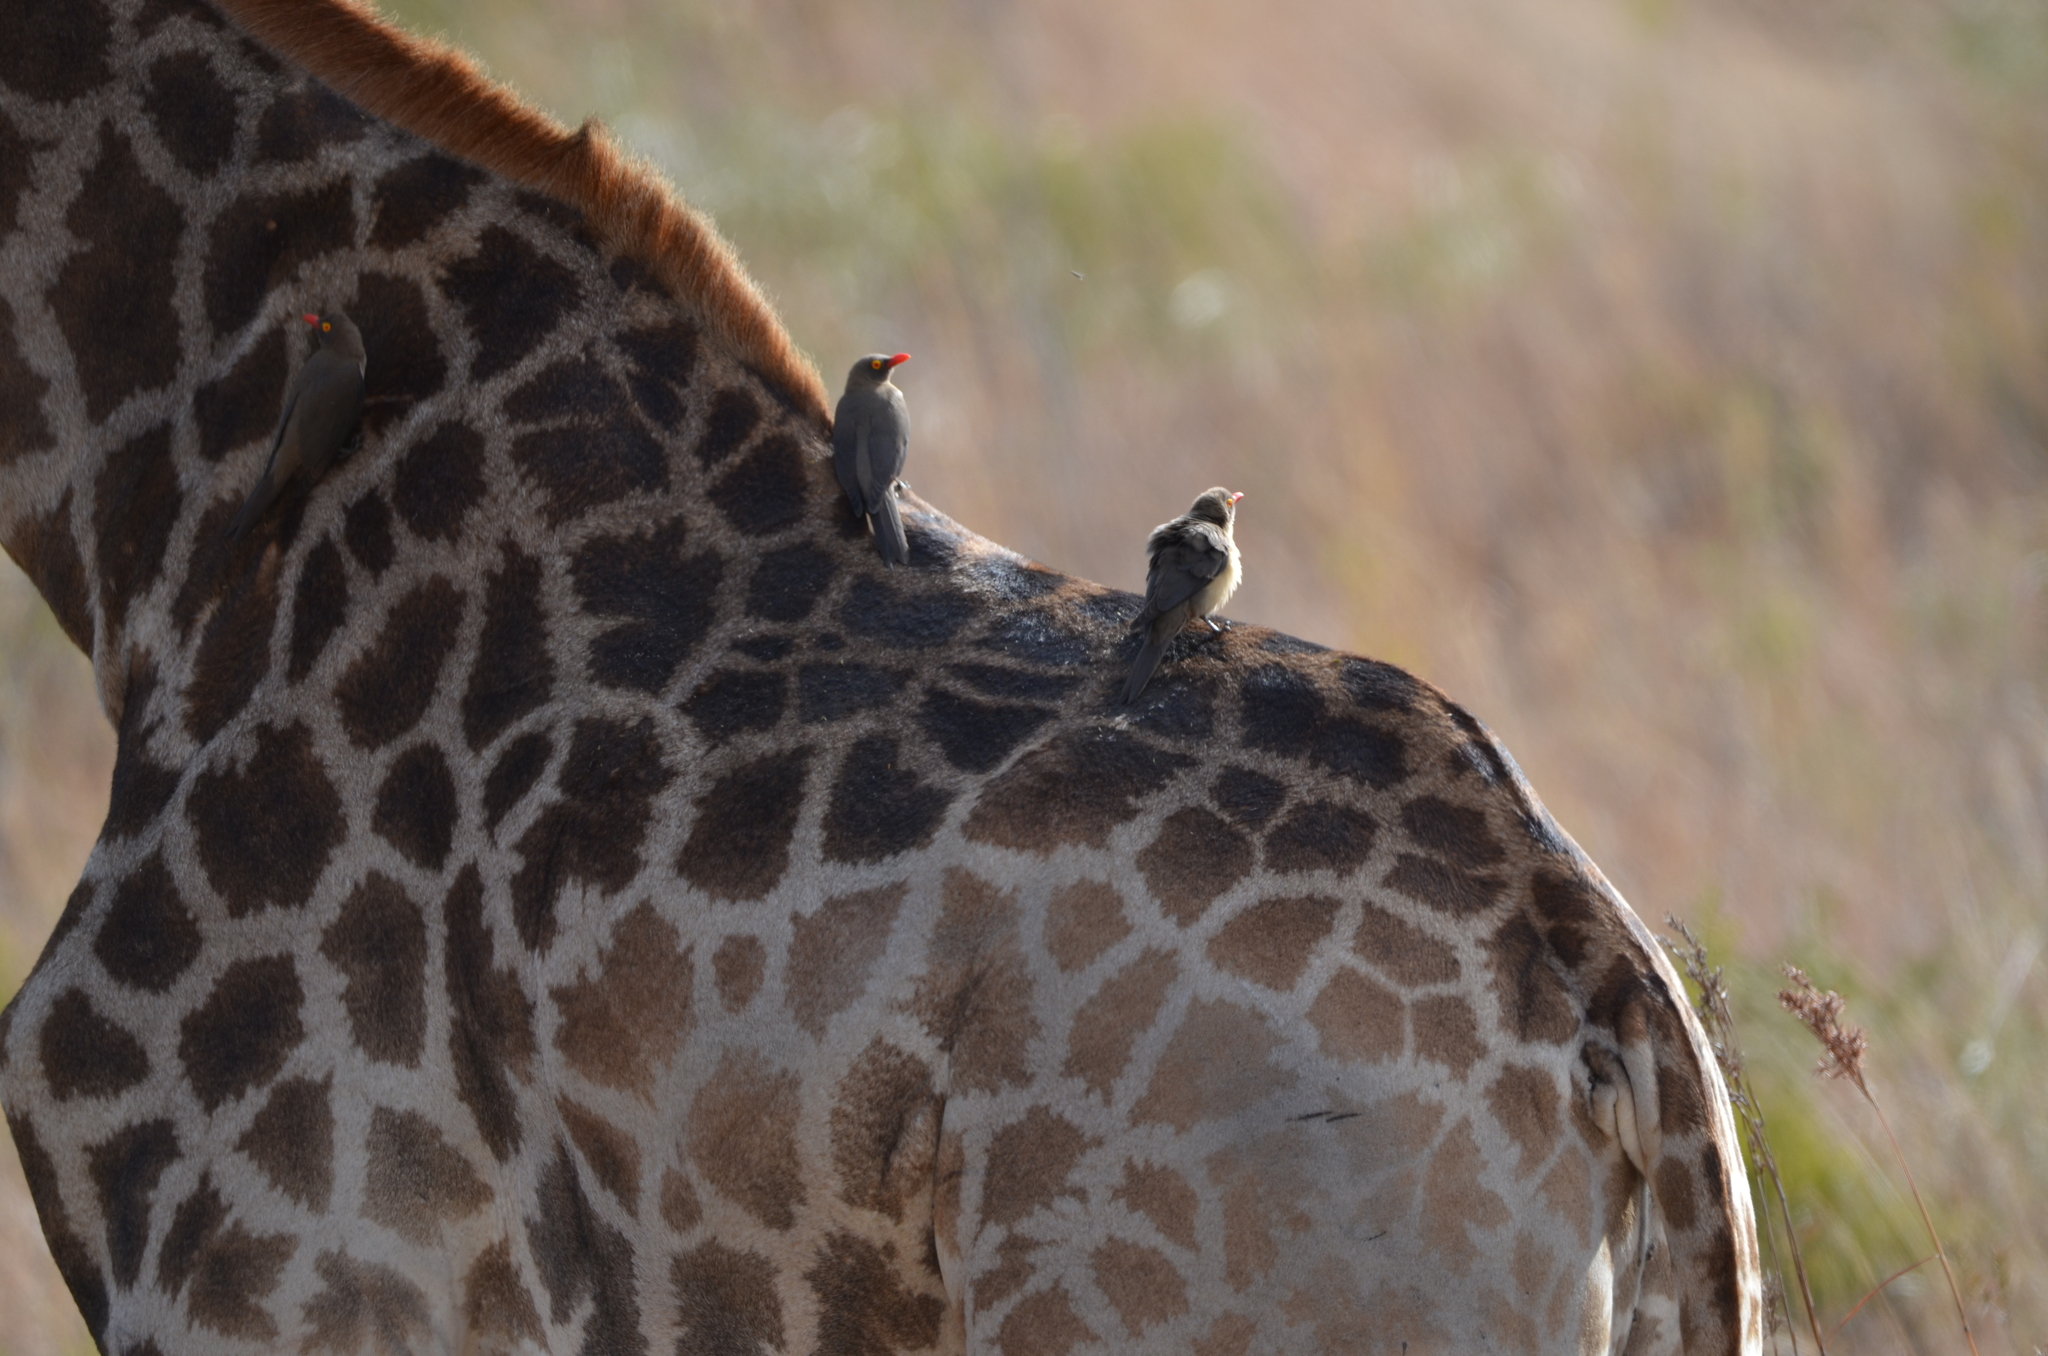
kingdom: Animalia
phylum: Chordata
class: Aves
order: Passeriformes
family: Buphagidae
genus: Buphagus
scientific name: Buphagus erythrorhynchus
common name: Red-billed oxpecker
